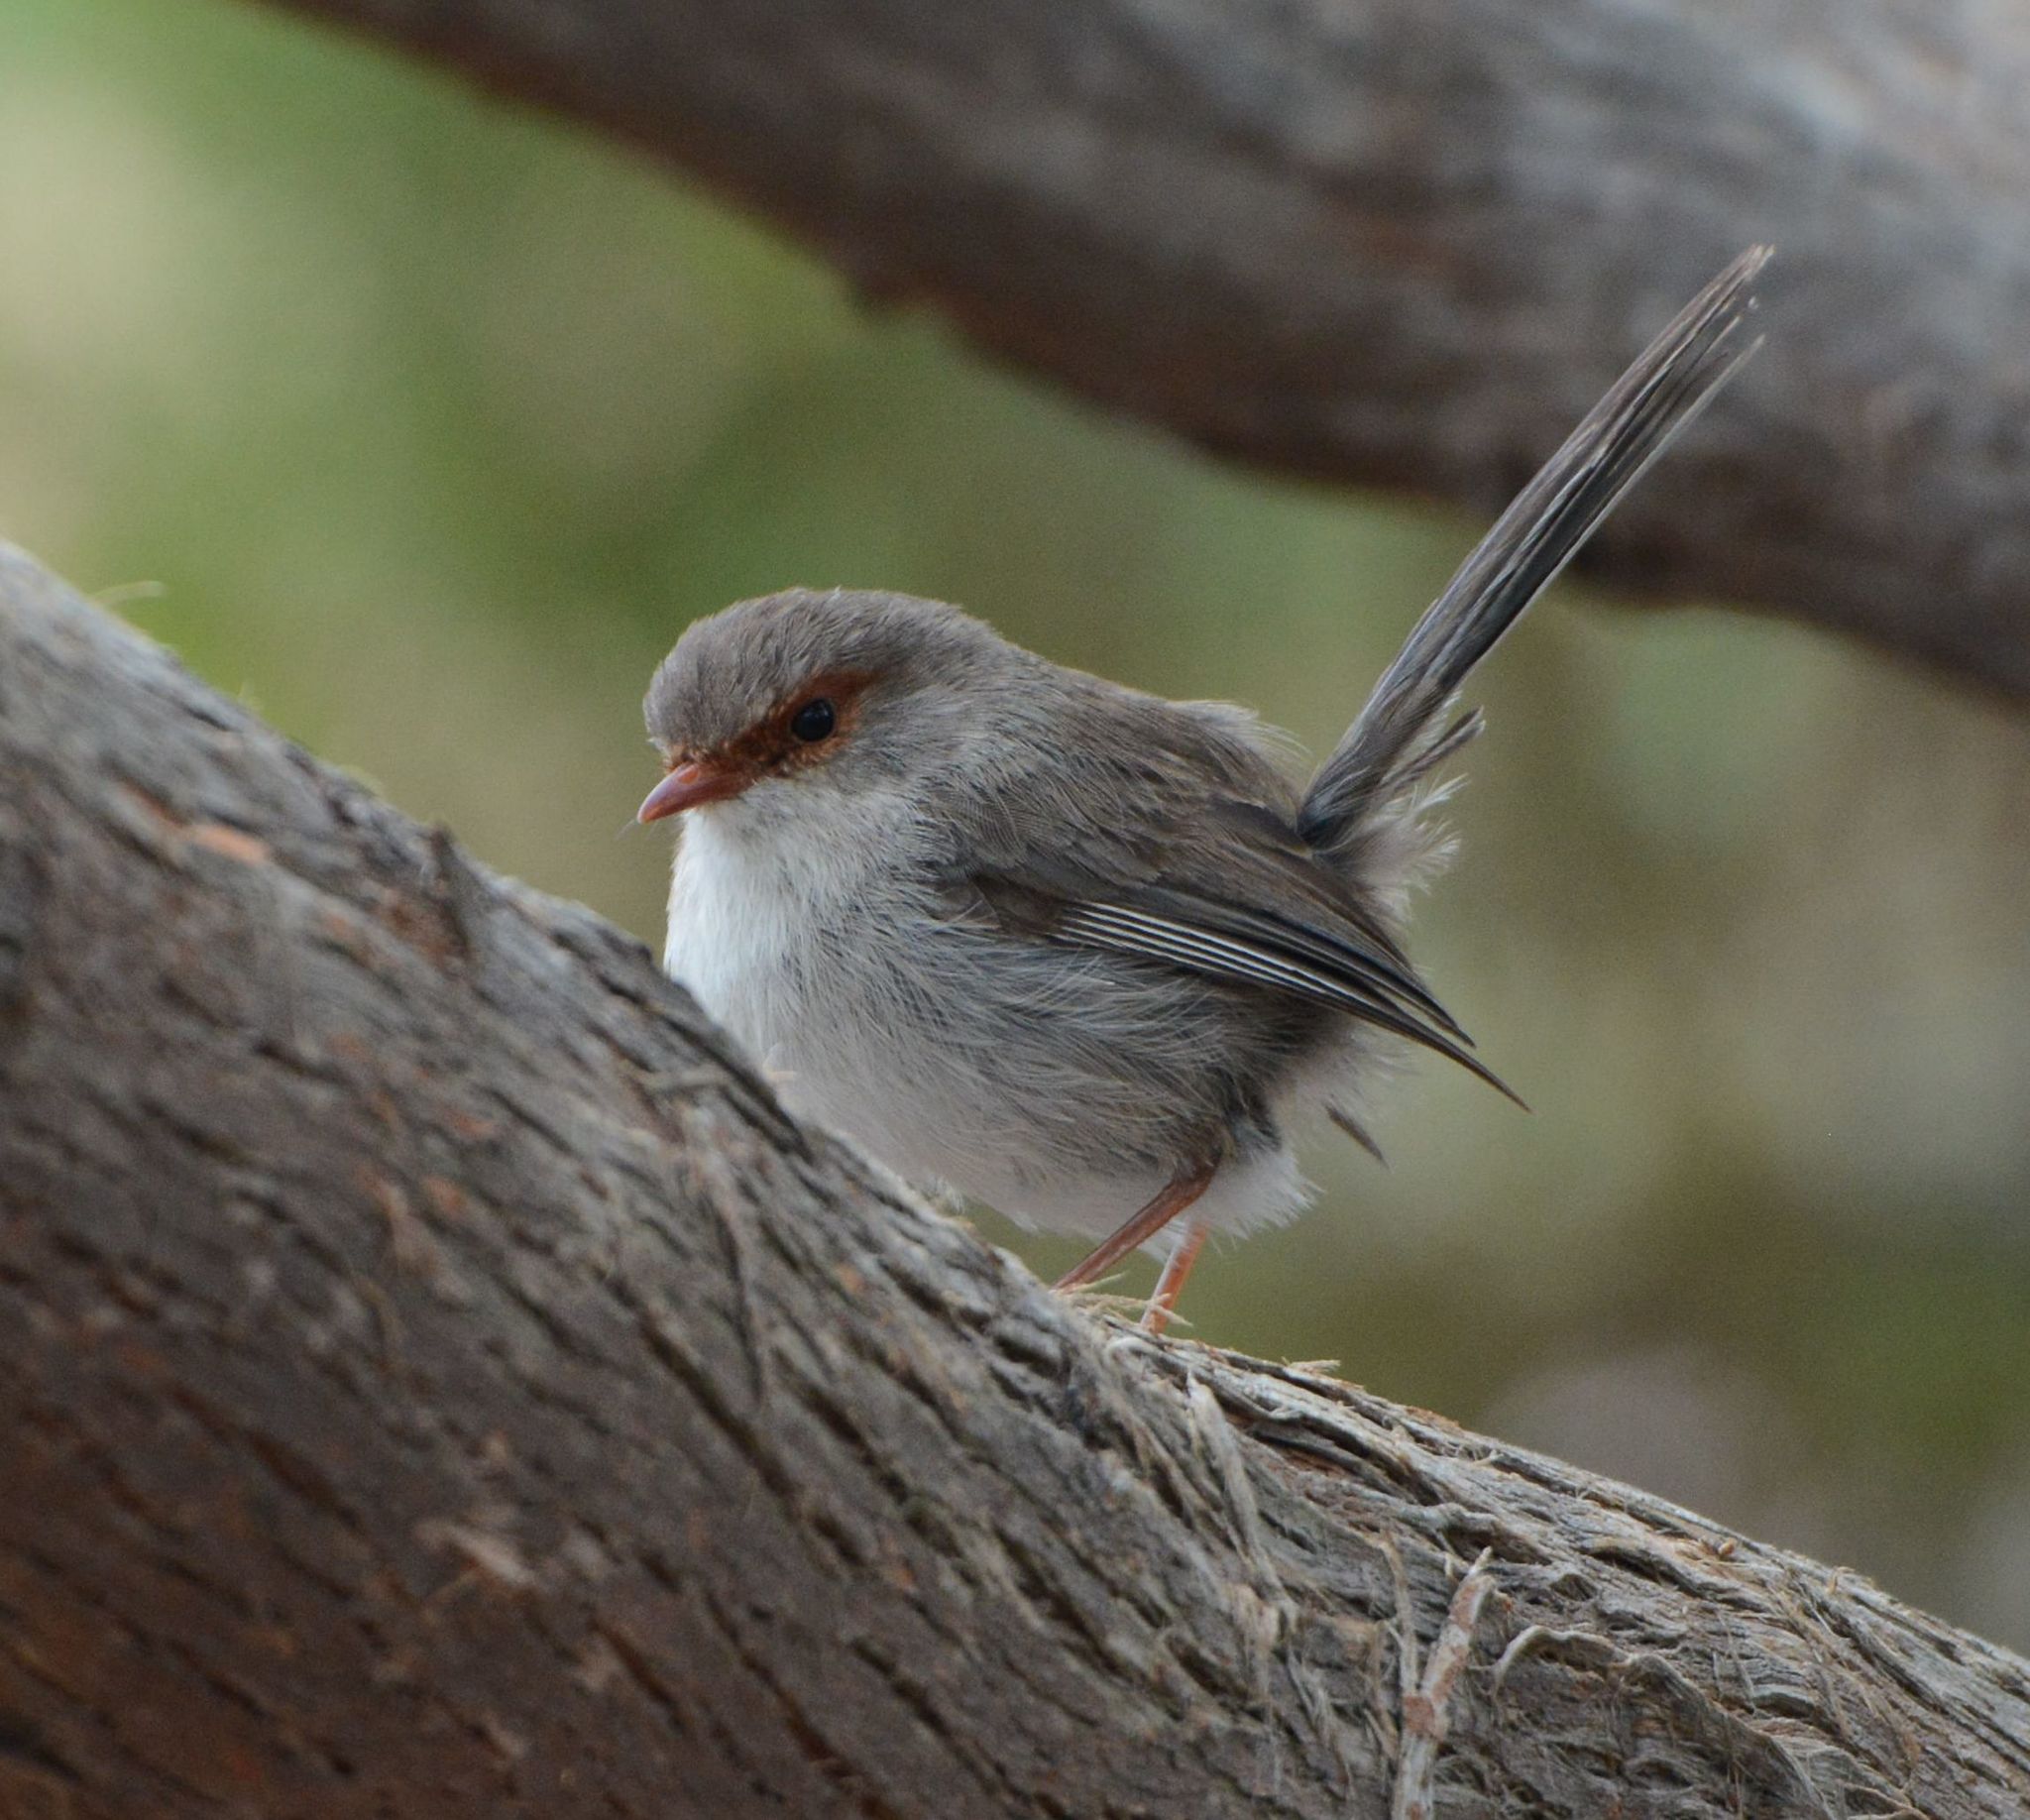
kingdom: Animalia
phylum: Chordata
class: Aves
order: Passeriformes
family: Maluridae
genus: Malurus
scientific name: Malurus cyaneus
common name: Superb fairywren
